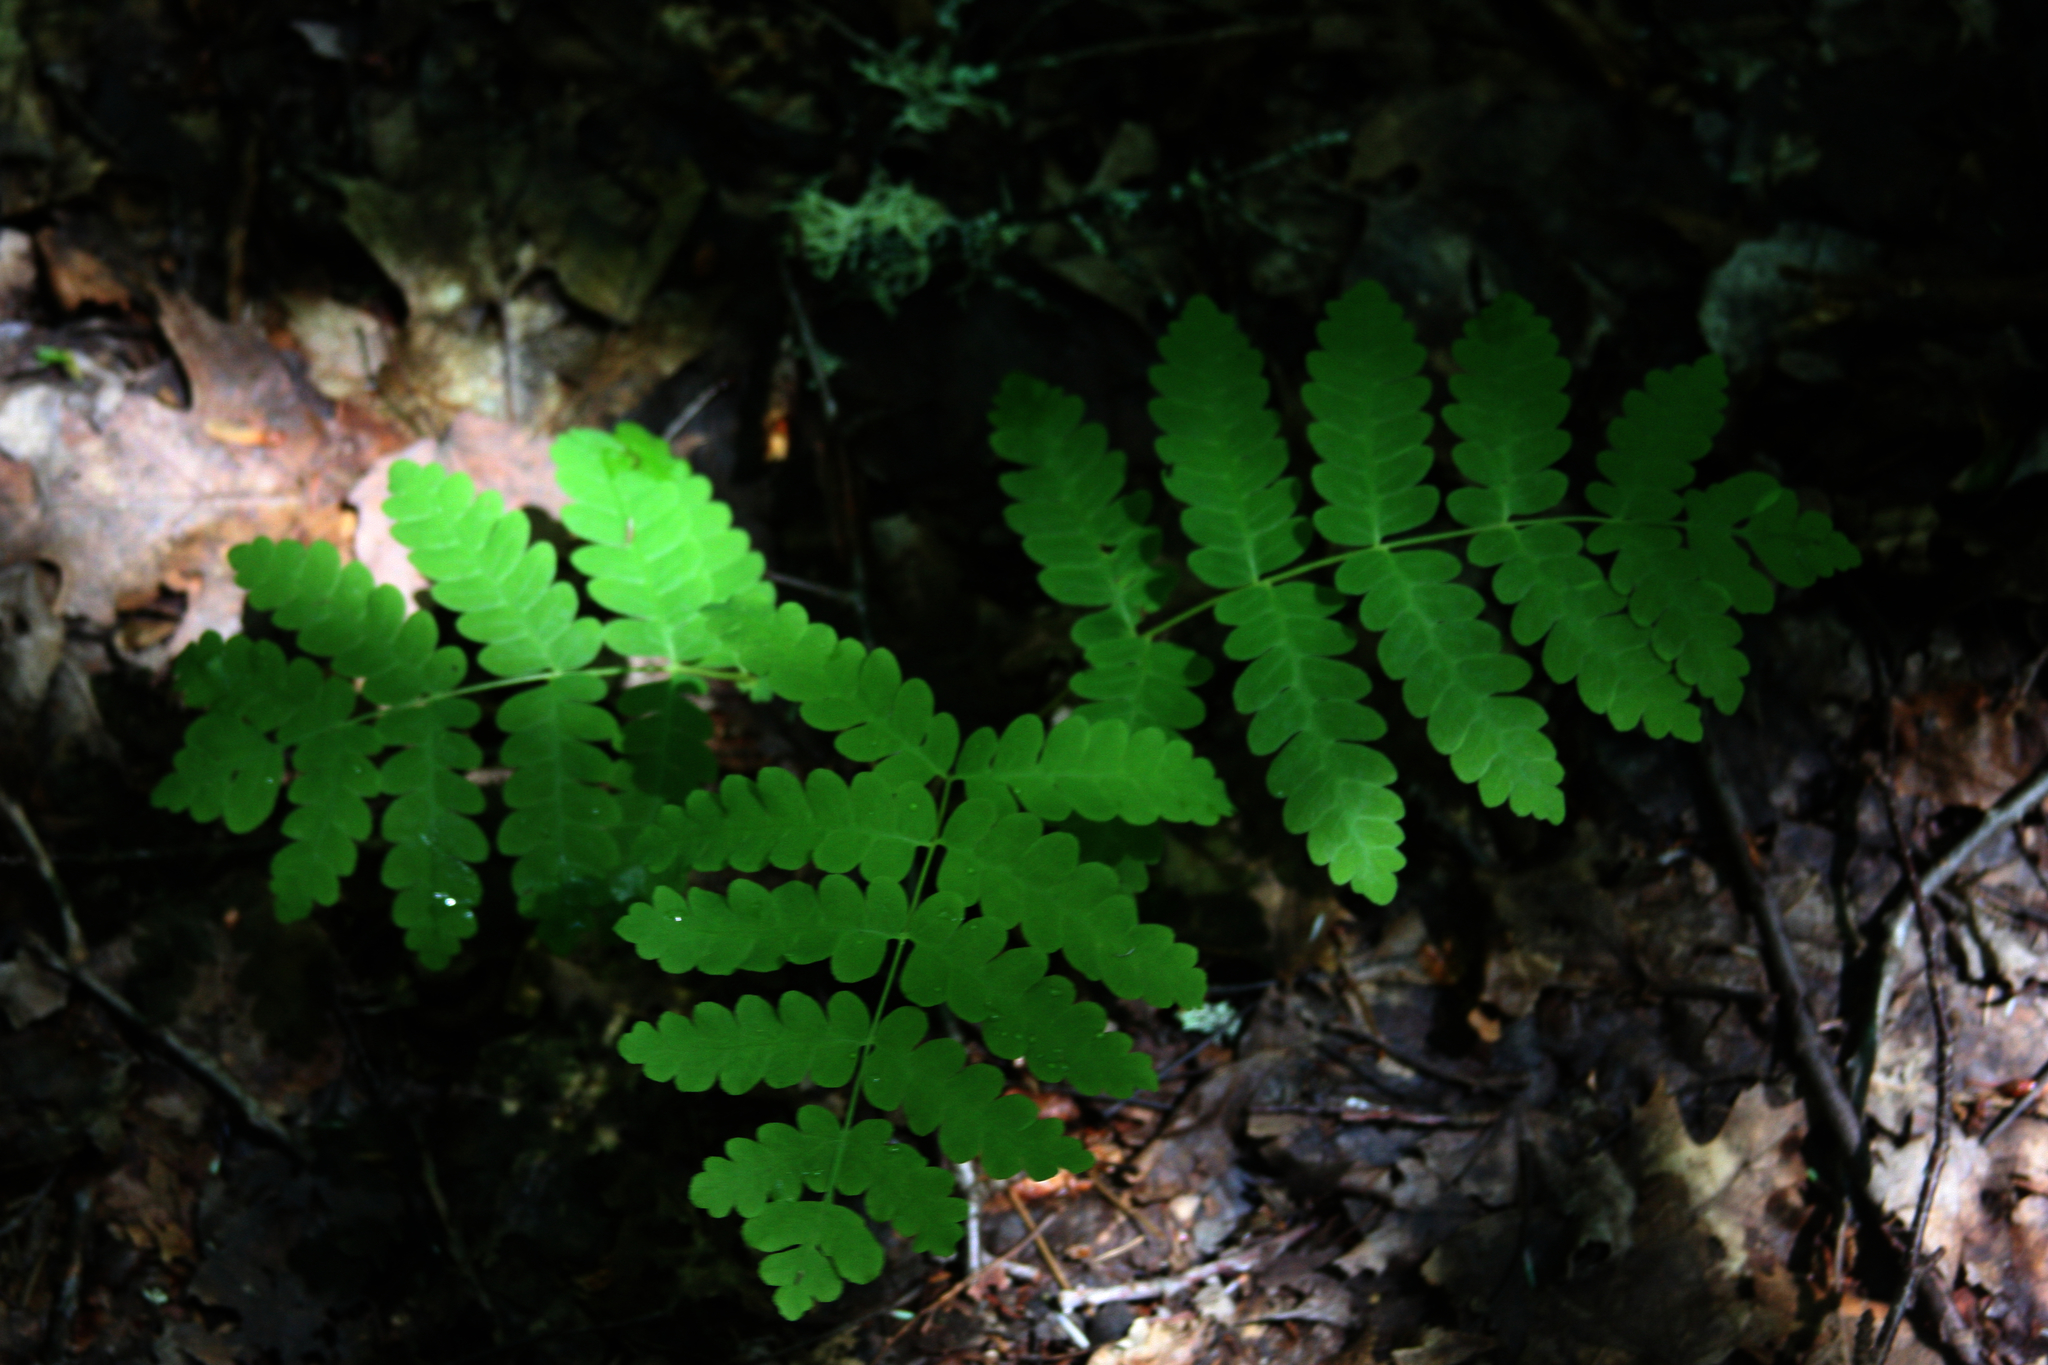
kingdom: Plantae
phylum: Tracheophyta
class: Polypodiopsida
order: Osmundales
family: Osmundaceae
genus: Claytosmunda
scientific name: Claytosmunda claytoniana
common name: Clayton's fern
